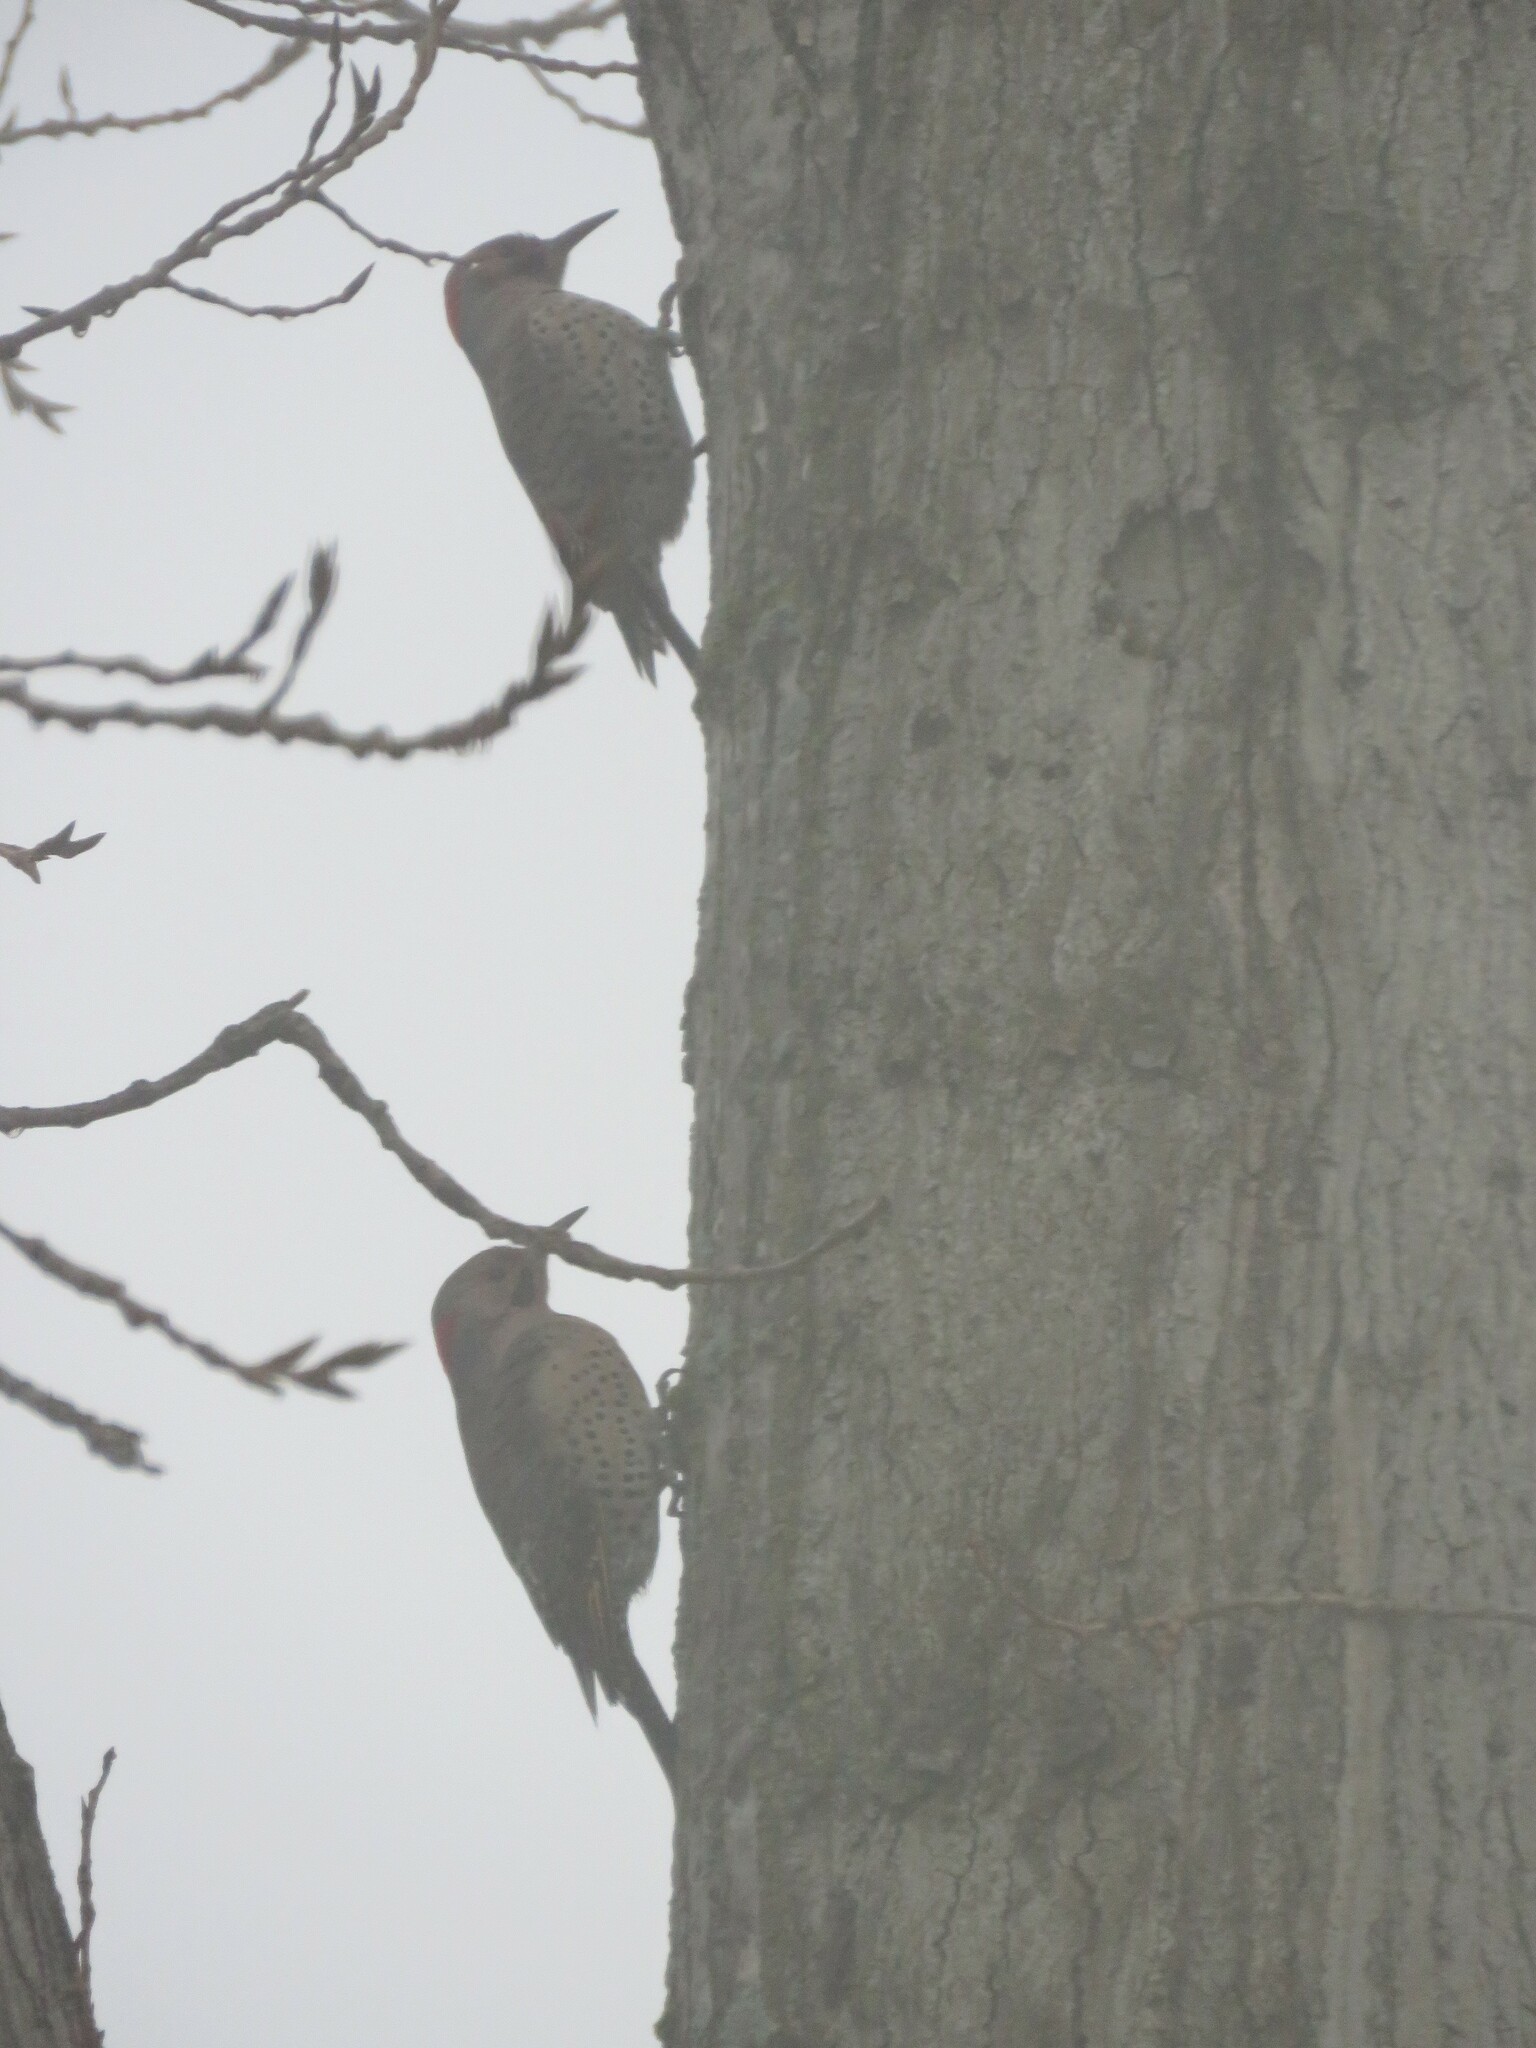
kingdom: Animalia
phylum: Chordata
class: Aves
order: Piciformes
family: Picidae
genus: Colaptes
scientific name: Colaptes auratus
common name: Northern flicker
